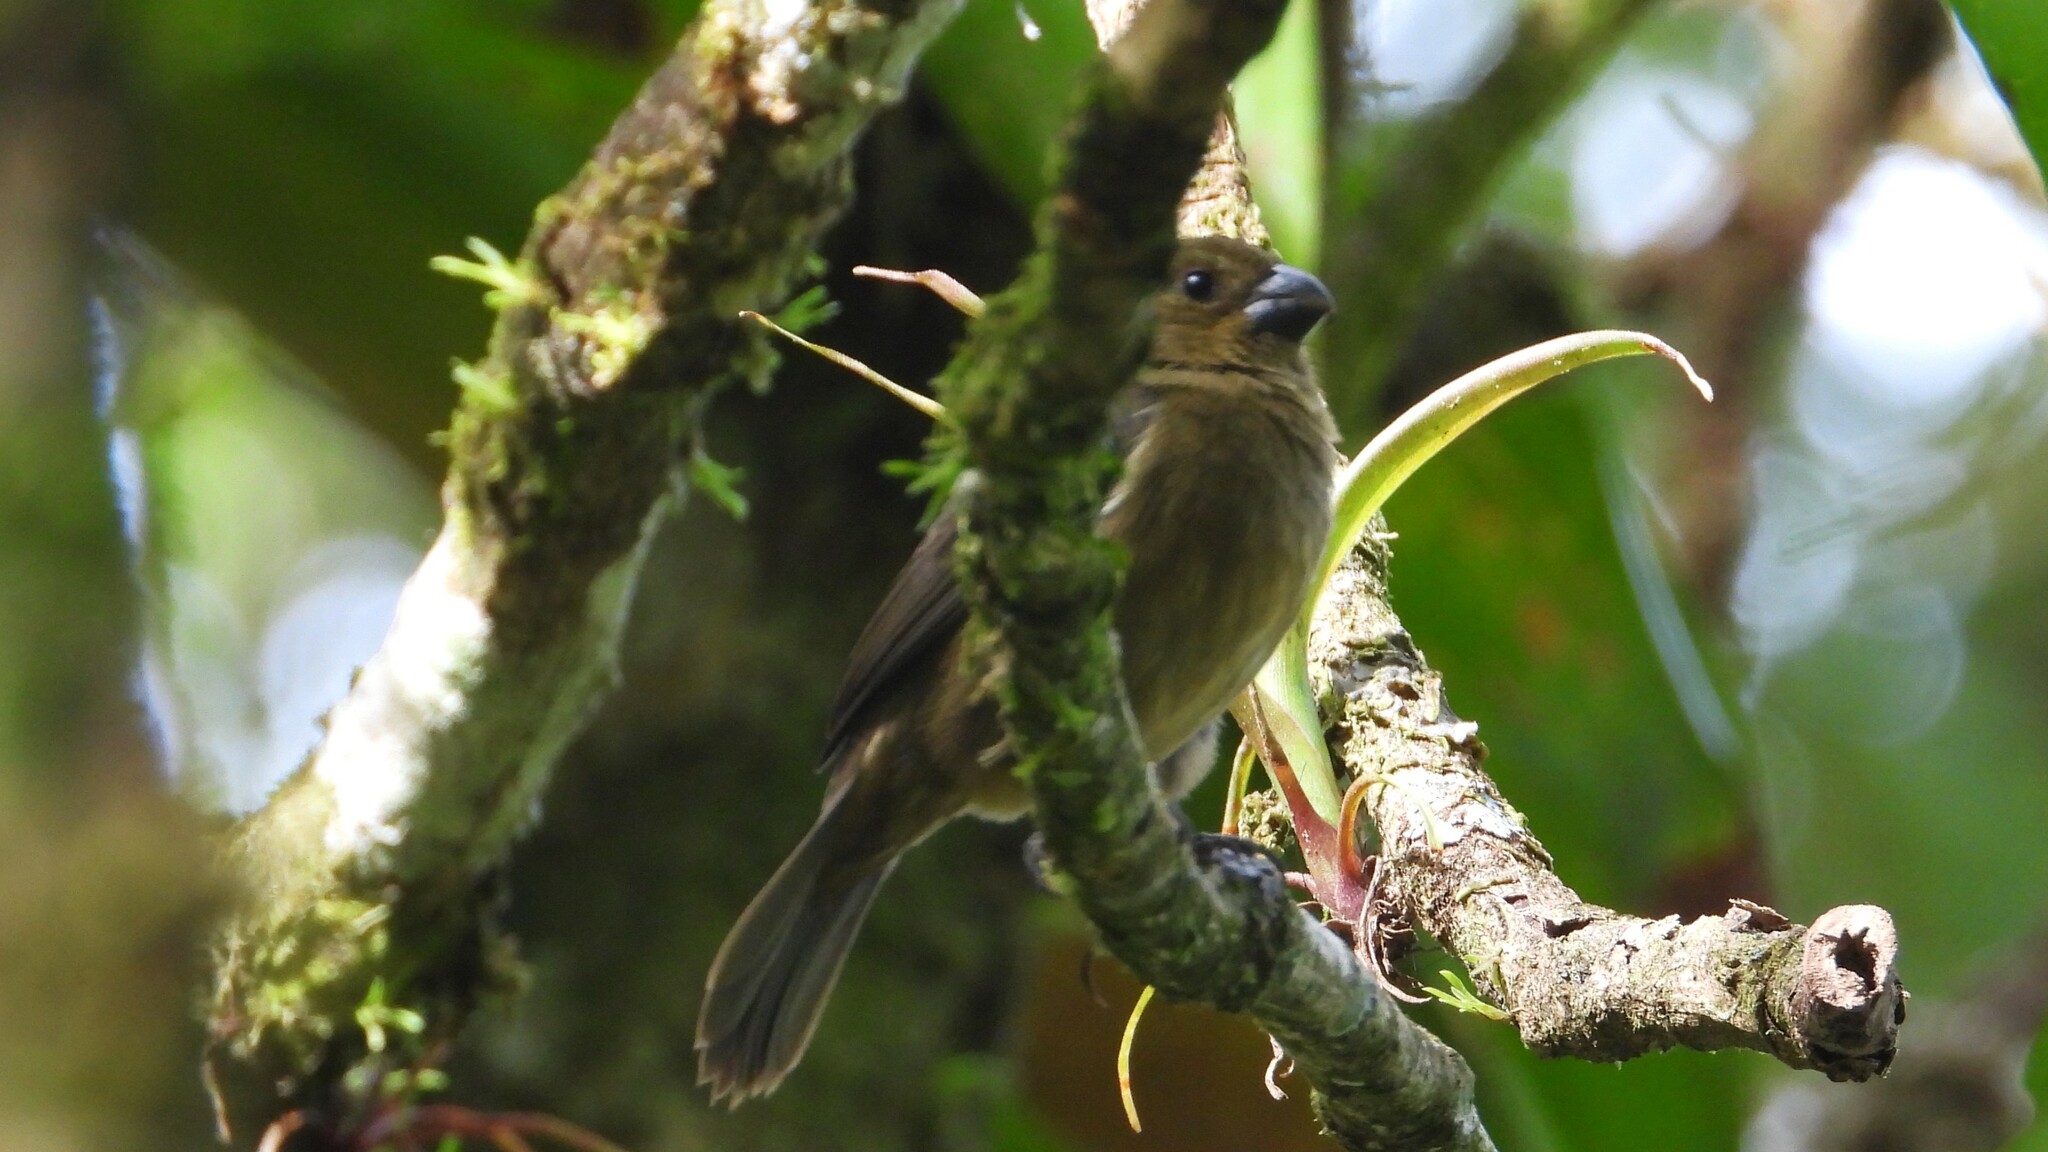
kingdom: Animalia
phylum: Chordata
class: Aves
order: Passeriformes
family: Thraupidae
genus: Sporophila
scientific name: Sporophila corvina
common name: Variable seedeater
